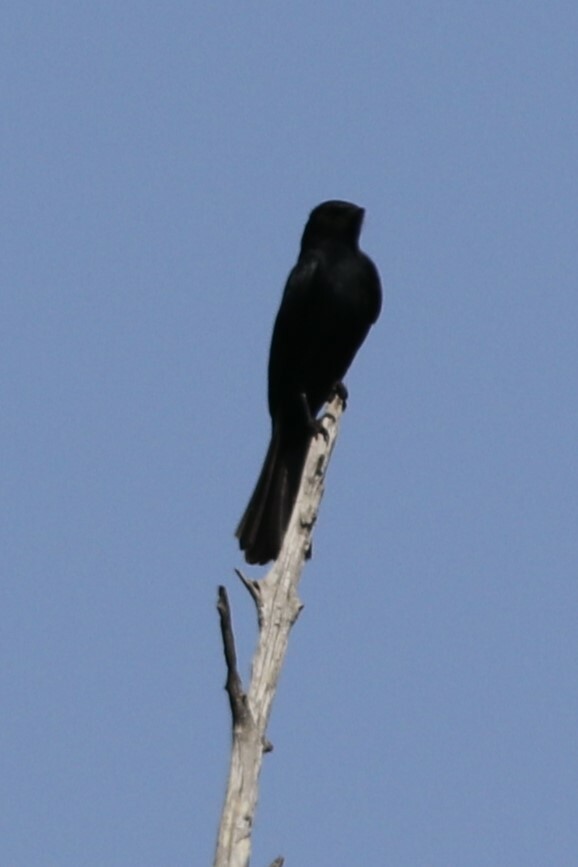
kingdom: Animalia
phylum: Chordata
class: Aves
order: Passeriformes
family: Muscicapidae
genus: Melaenornis
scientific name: Melaenornis pammelaina
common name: Southern black flycatcher
